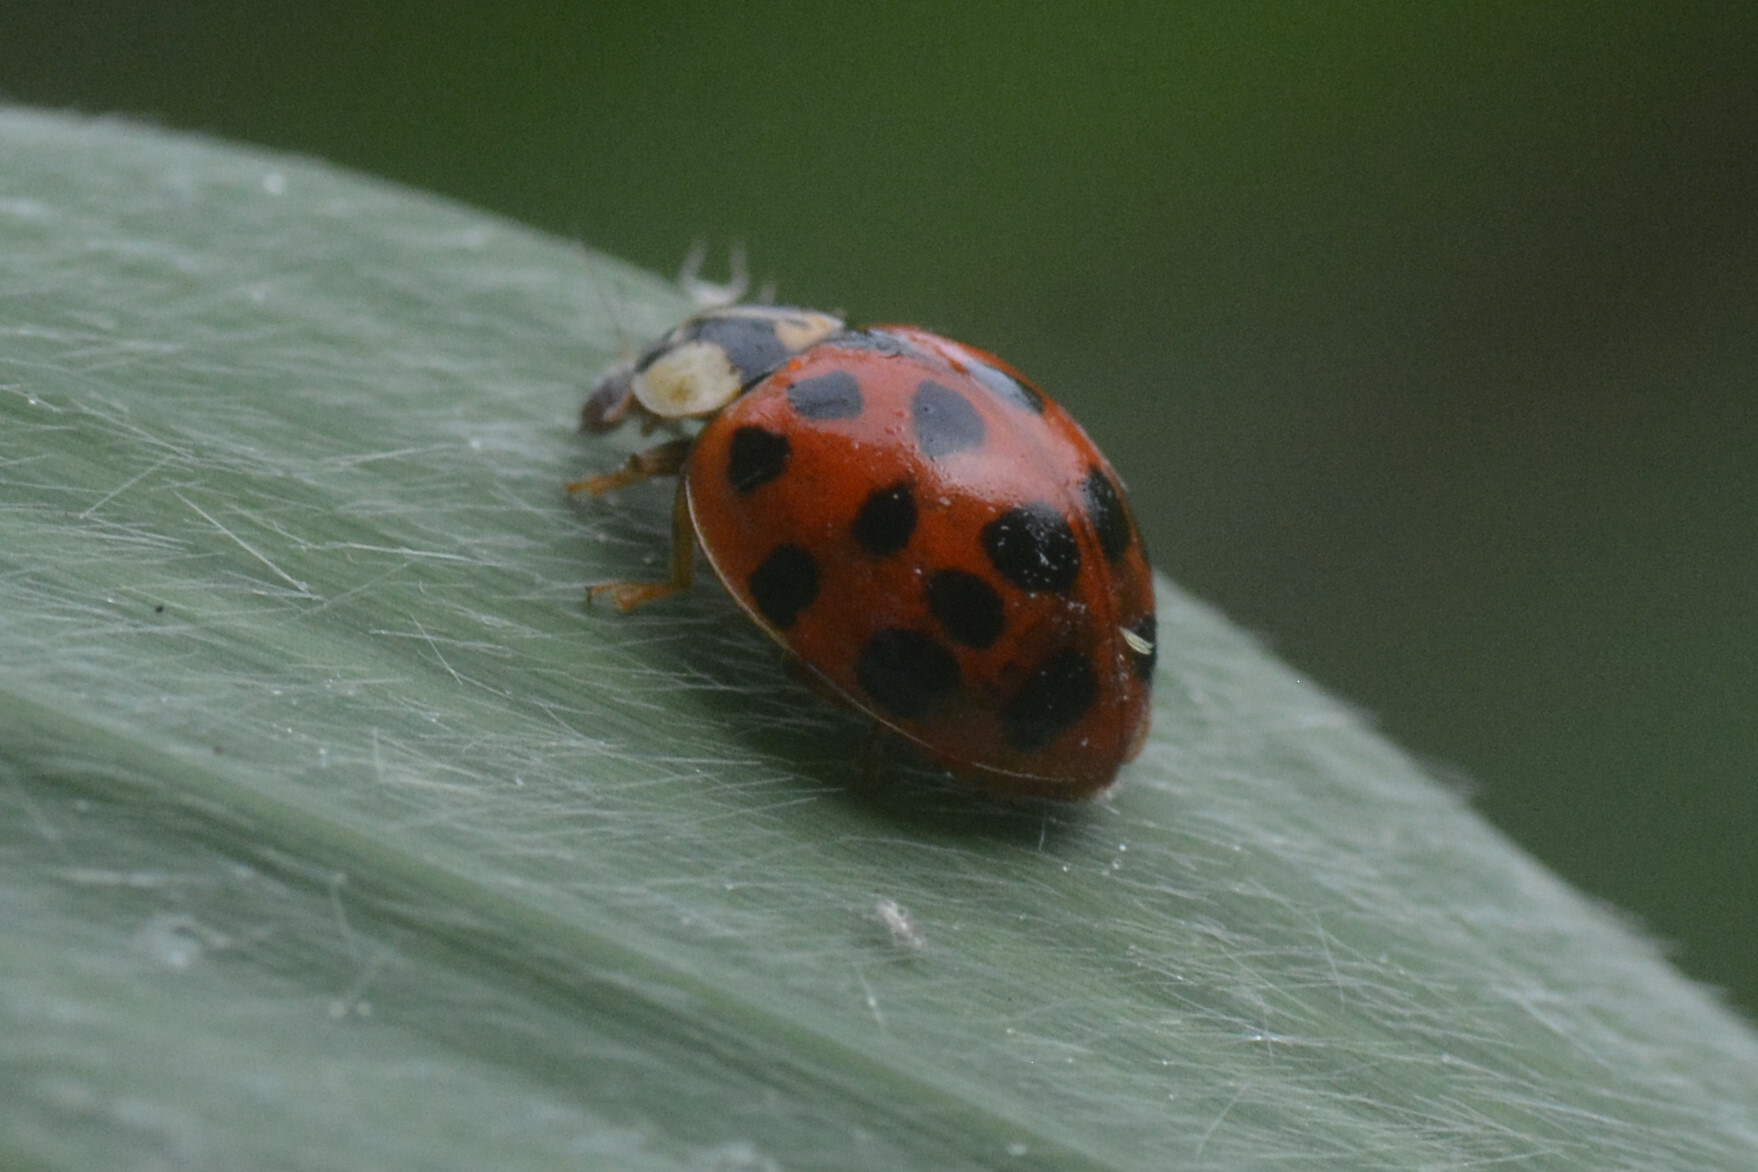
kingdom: Animalia
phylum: Arthropoda
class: Insecta
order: Coleoptera
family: Coccinellidae
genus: Harmonia
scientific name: Harmonia axyridis
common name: Harlequin ladybird
